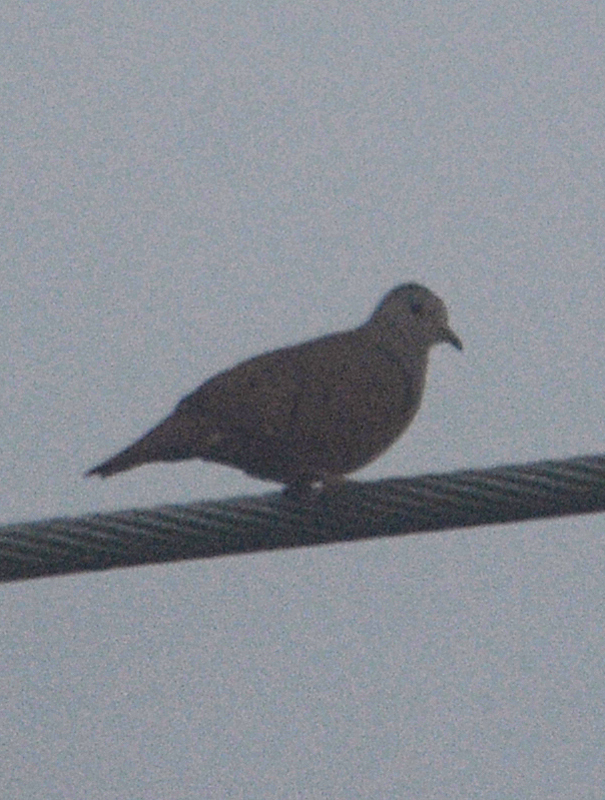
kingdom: Animalia
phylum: Chordata
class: Aves
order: Columbiformes
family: Columbidae
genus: Columbina
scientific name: Columbina talpacoti
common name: Ruddy ground dove
